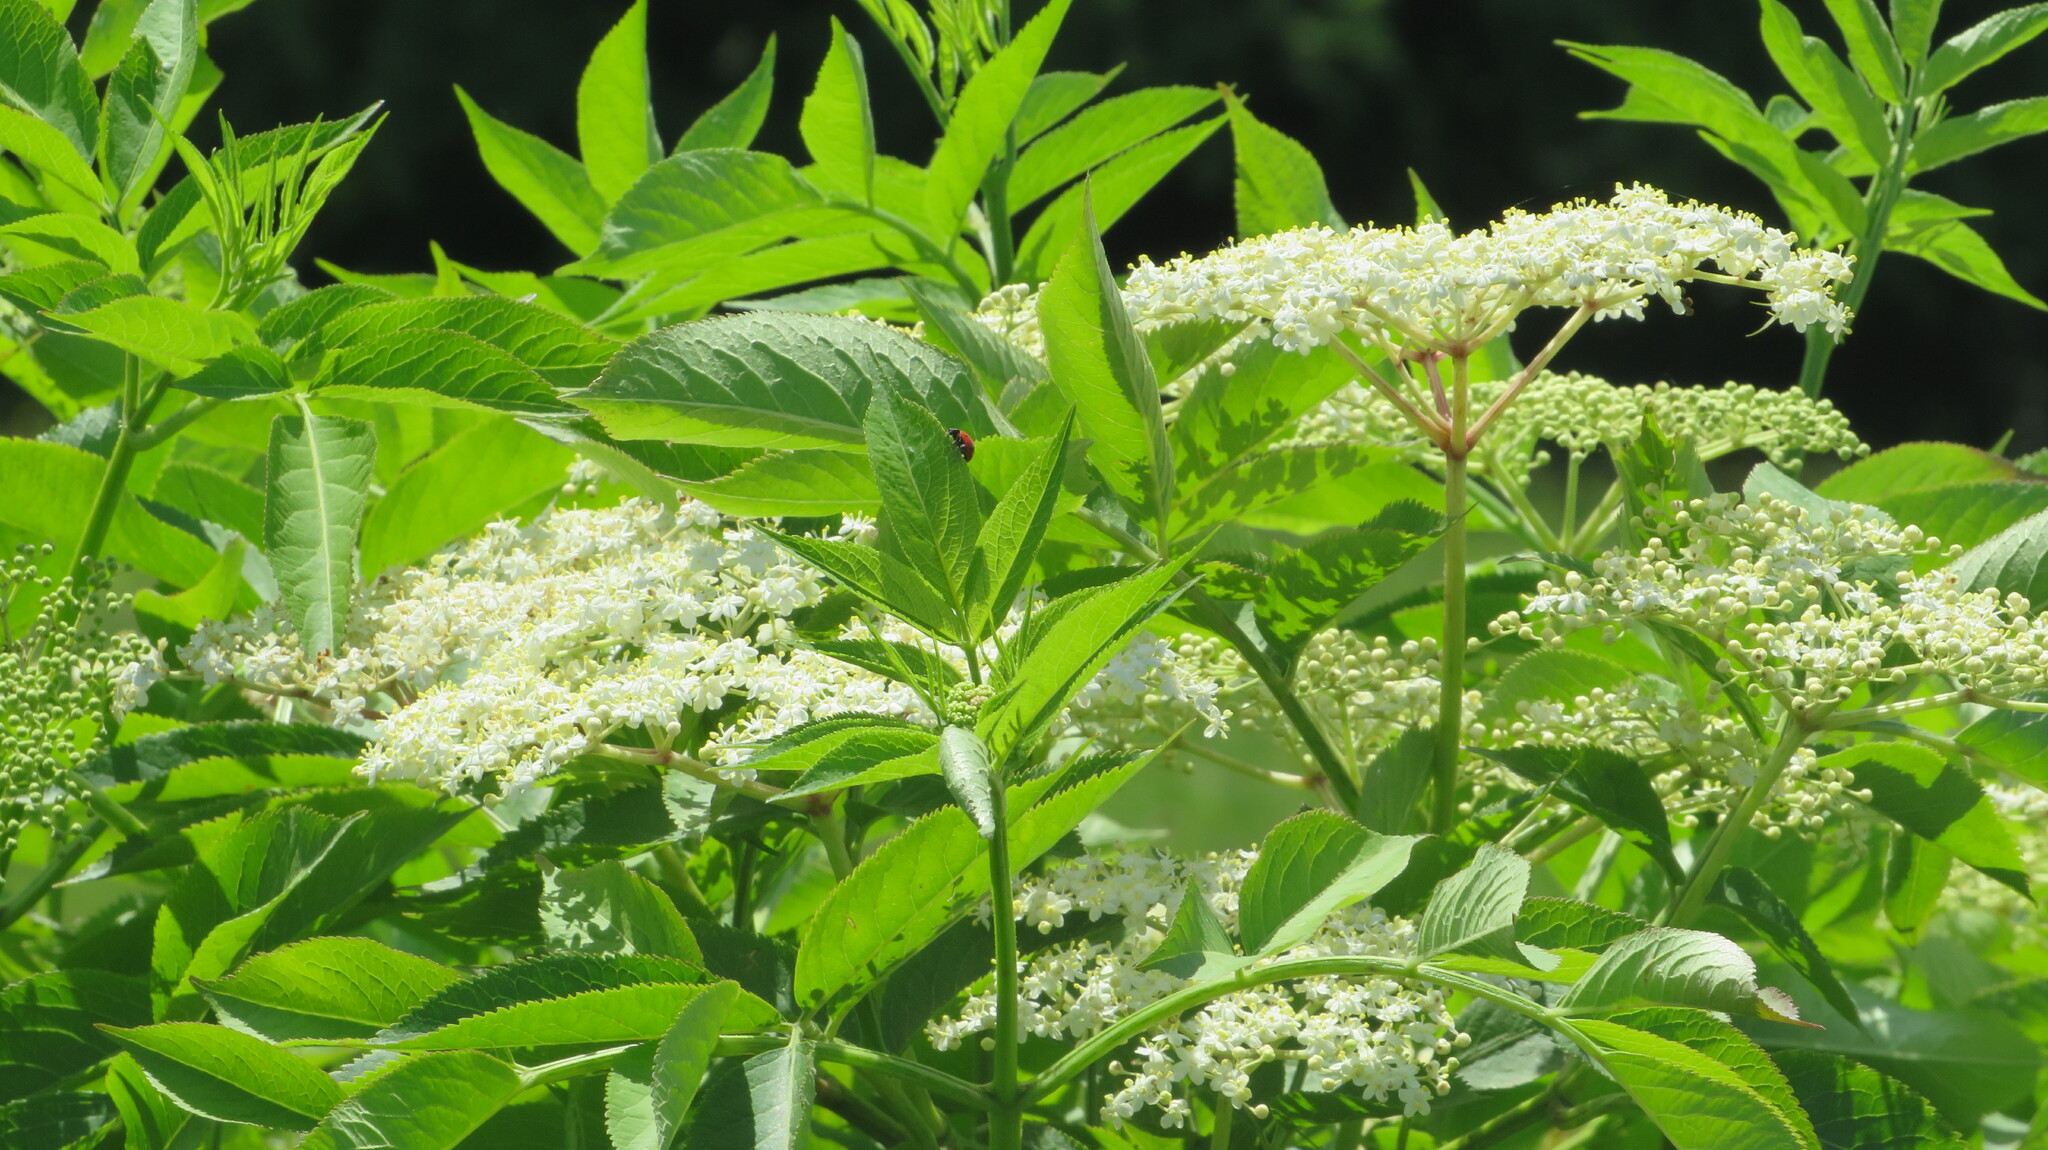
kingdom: Plantae
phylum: Tracheophyta
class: Magnoliopsida
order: Dipsacales
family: Viburnaceae
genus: Sambucus
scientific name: Sambucus nigra
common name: Elder
